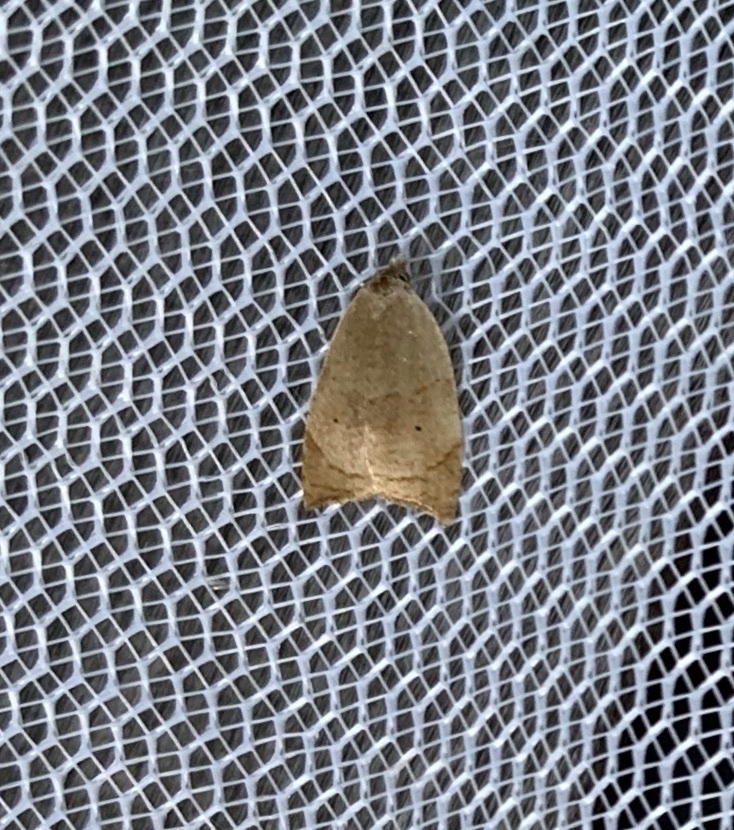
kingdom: Animalia
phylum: Arthropoda
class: Insecta
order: Lepidoptera
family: Tortricidae
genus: Coelostathma
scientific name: Coelostathma discopunctana
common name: Batman moth
